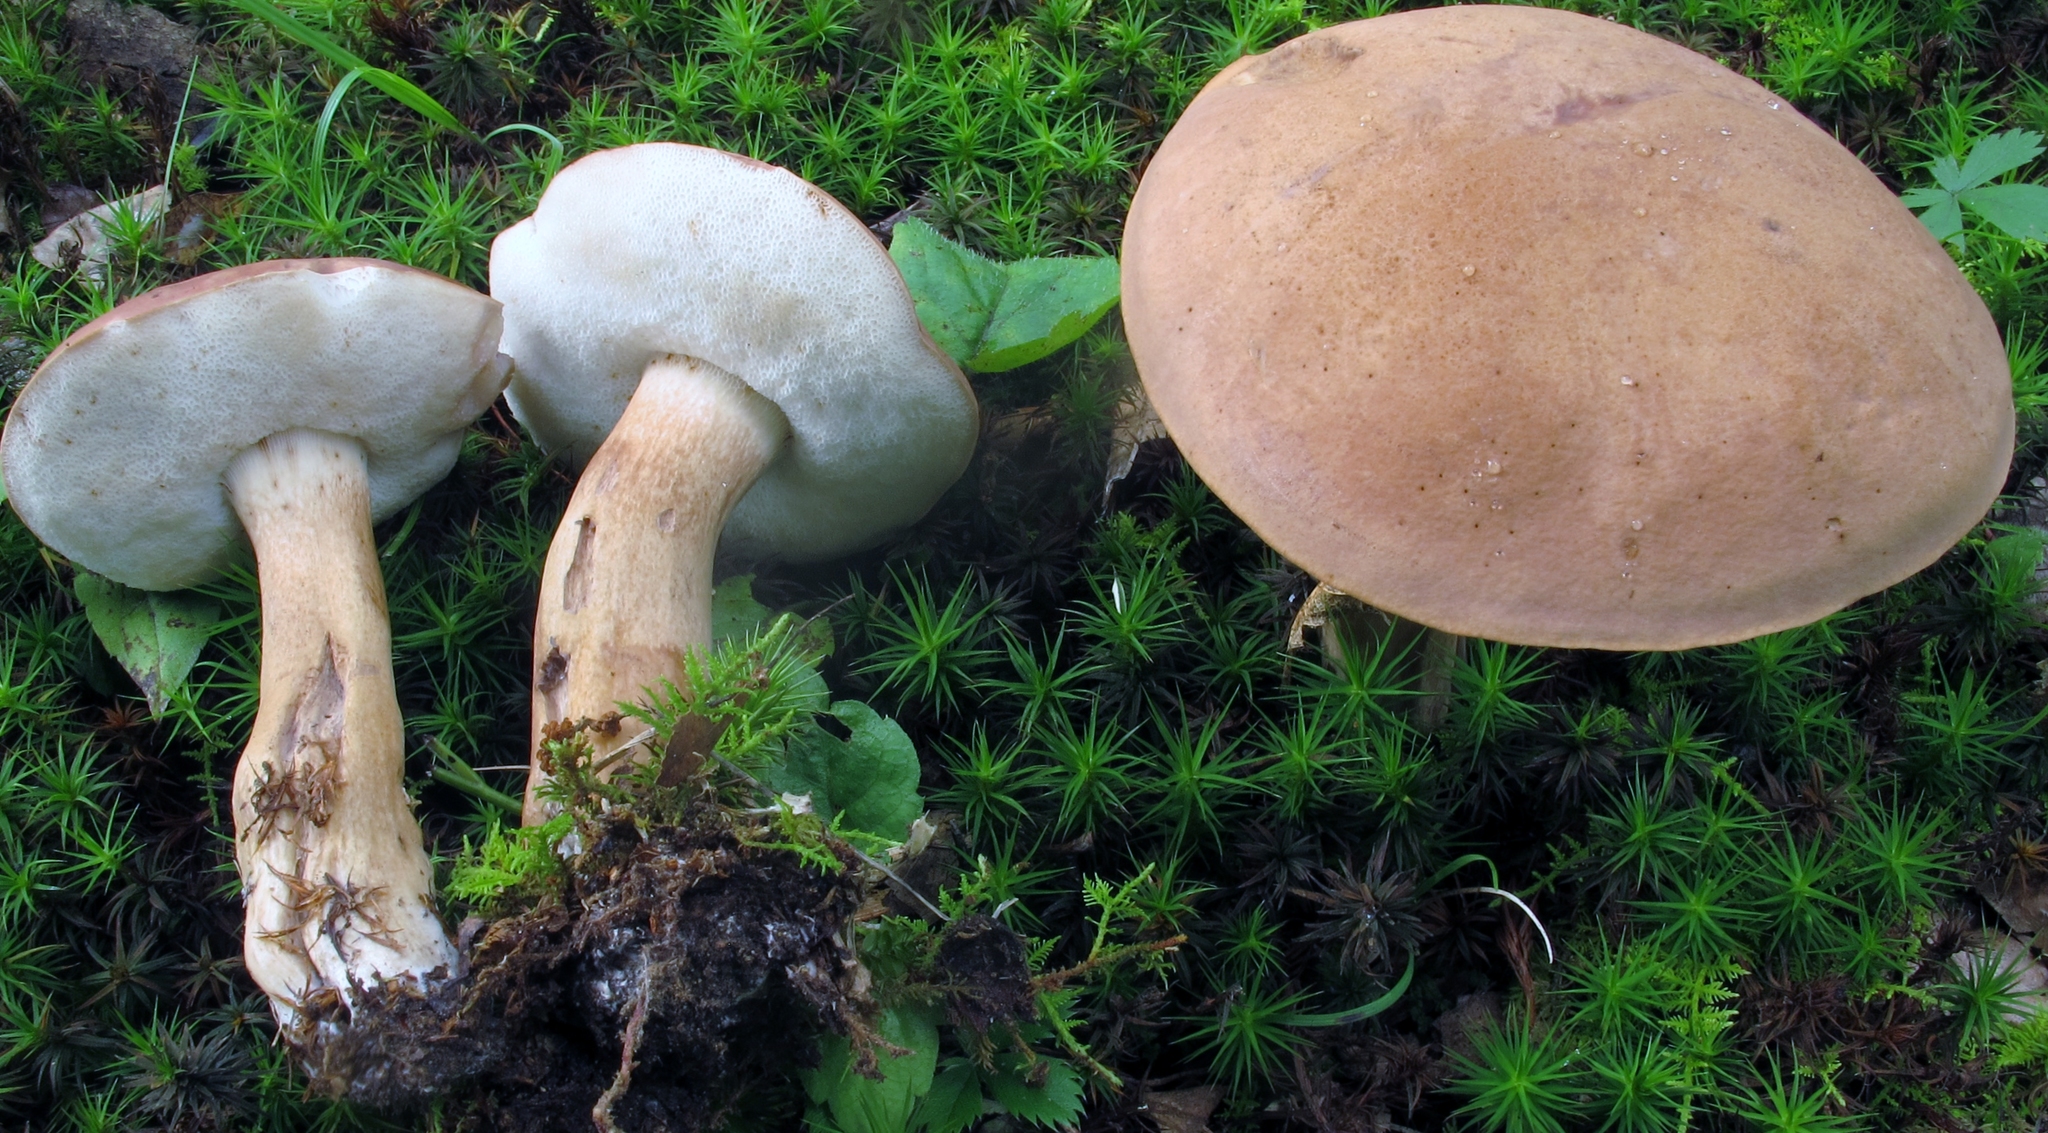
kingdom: Fungi
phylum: Basidiomycota
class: Agaricomycetes
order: Boletales
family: Boletaceae
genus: Porphyrellus
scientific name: Porphyrellus indecisus
